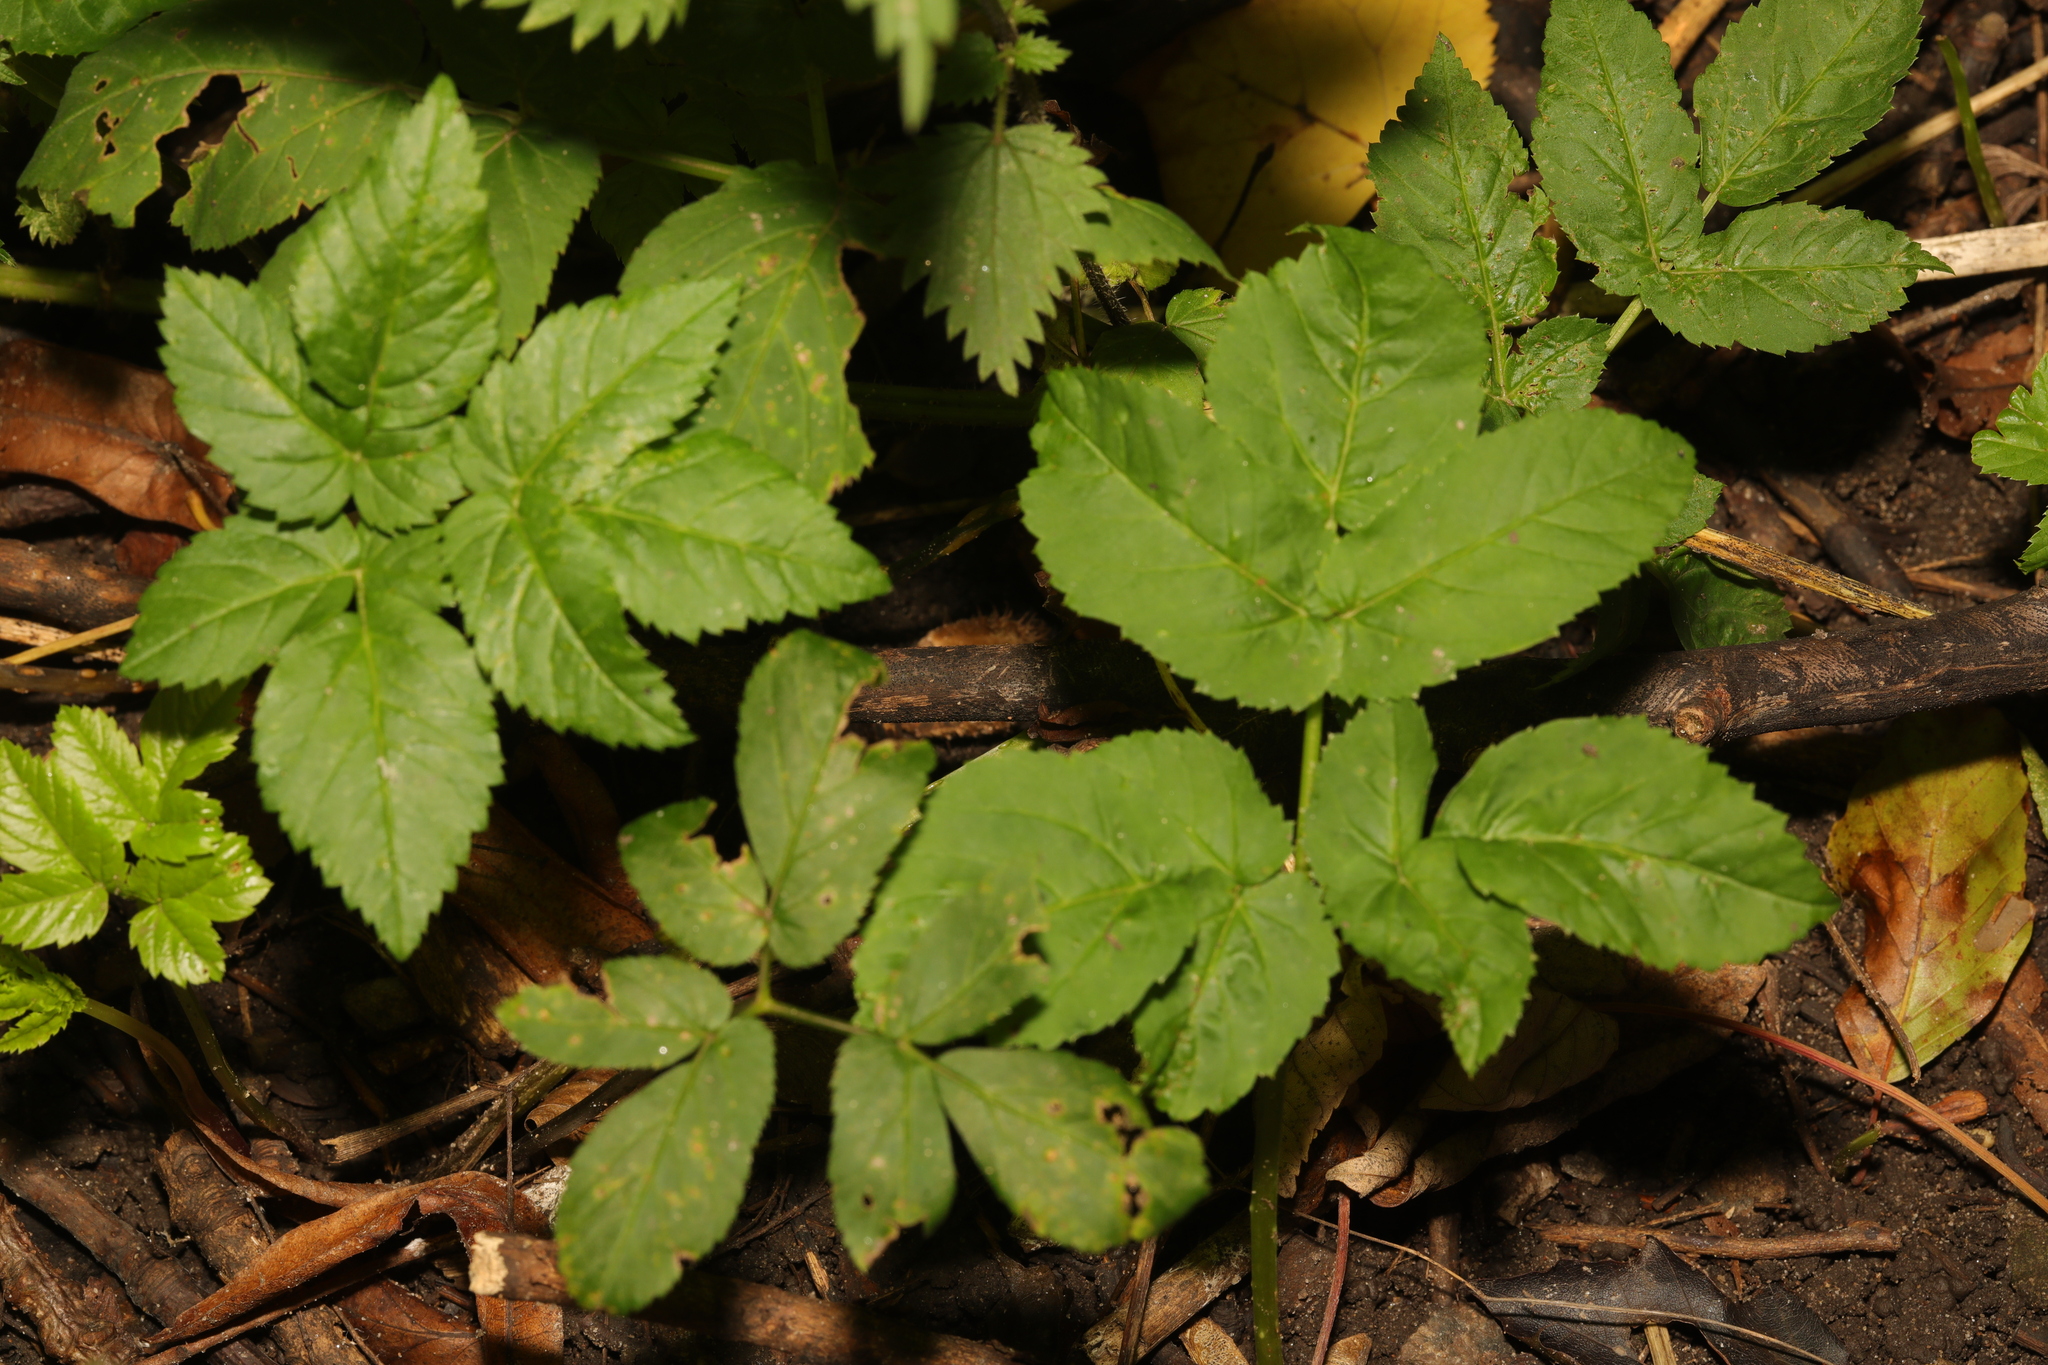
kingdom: Plantae
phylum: Tracheophyta
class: Magnoliopsida
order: Apiales
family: Apiaceae
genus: Aegopodium
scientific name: Aegopodium podagraria
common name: Ground-elder
